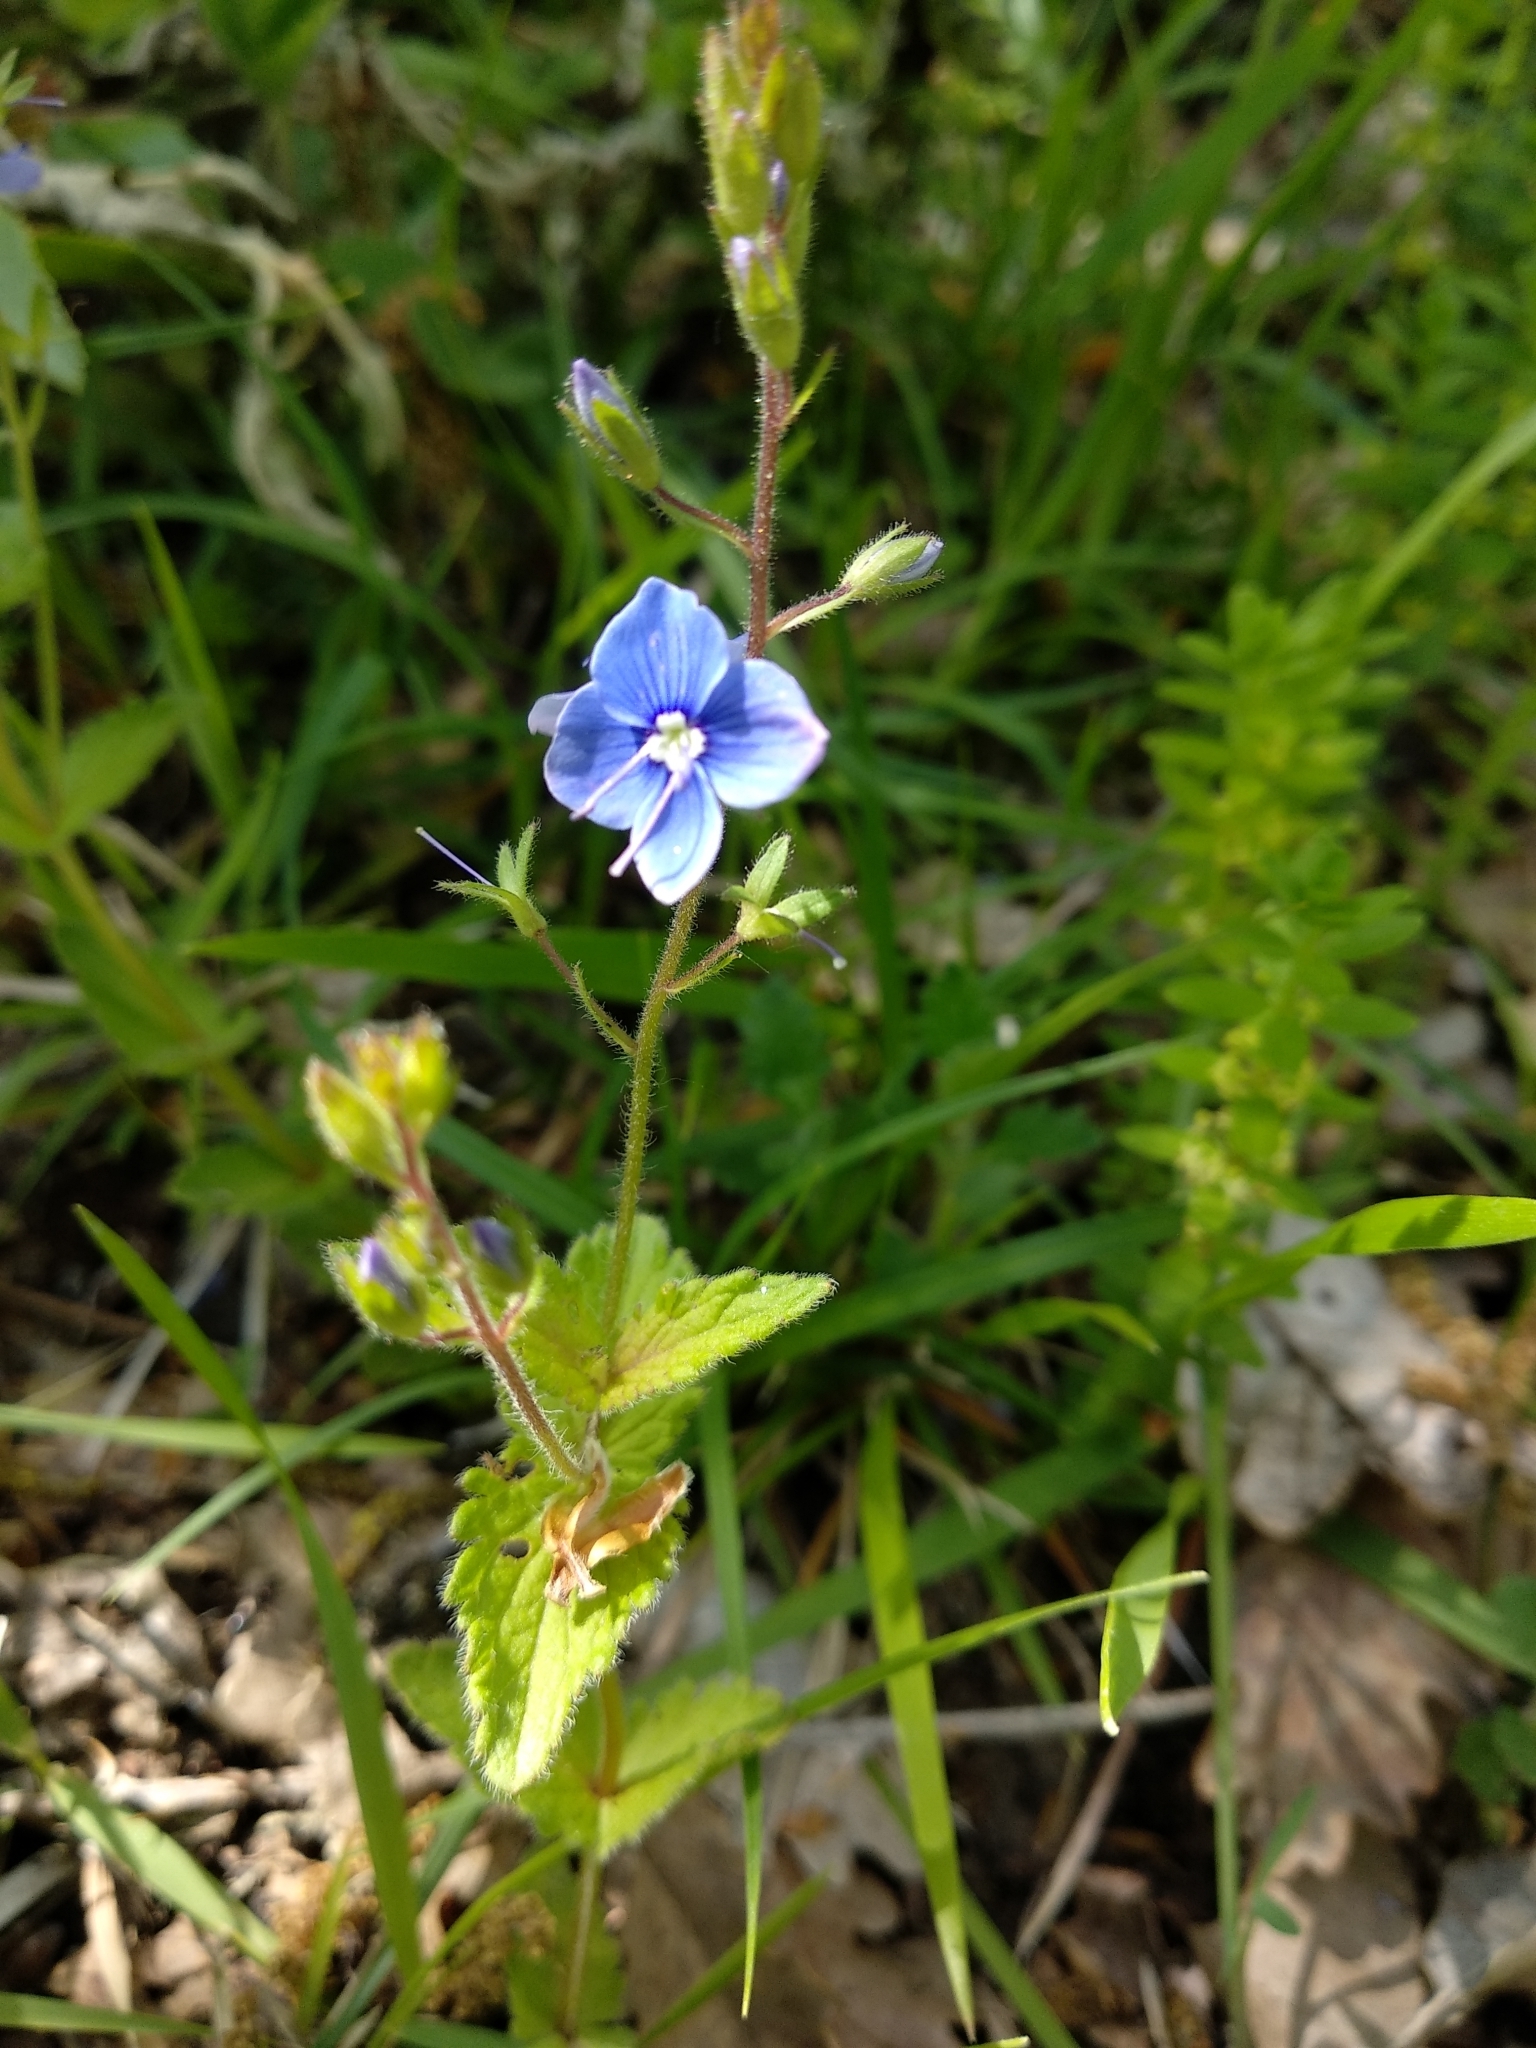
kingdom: Plantae
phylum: Tracheophyta
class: Magnoliopsida
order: Lamiales
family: Plantaginaceae
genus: Veronica
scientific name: Veronica chamaedrys
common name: Germander speedwell
